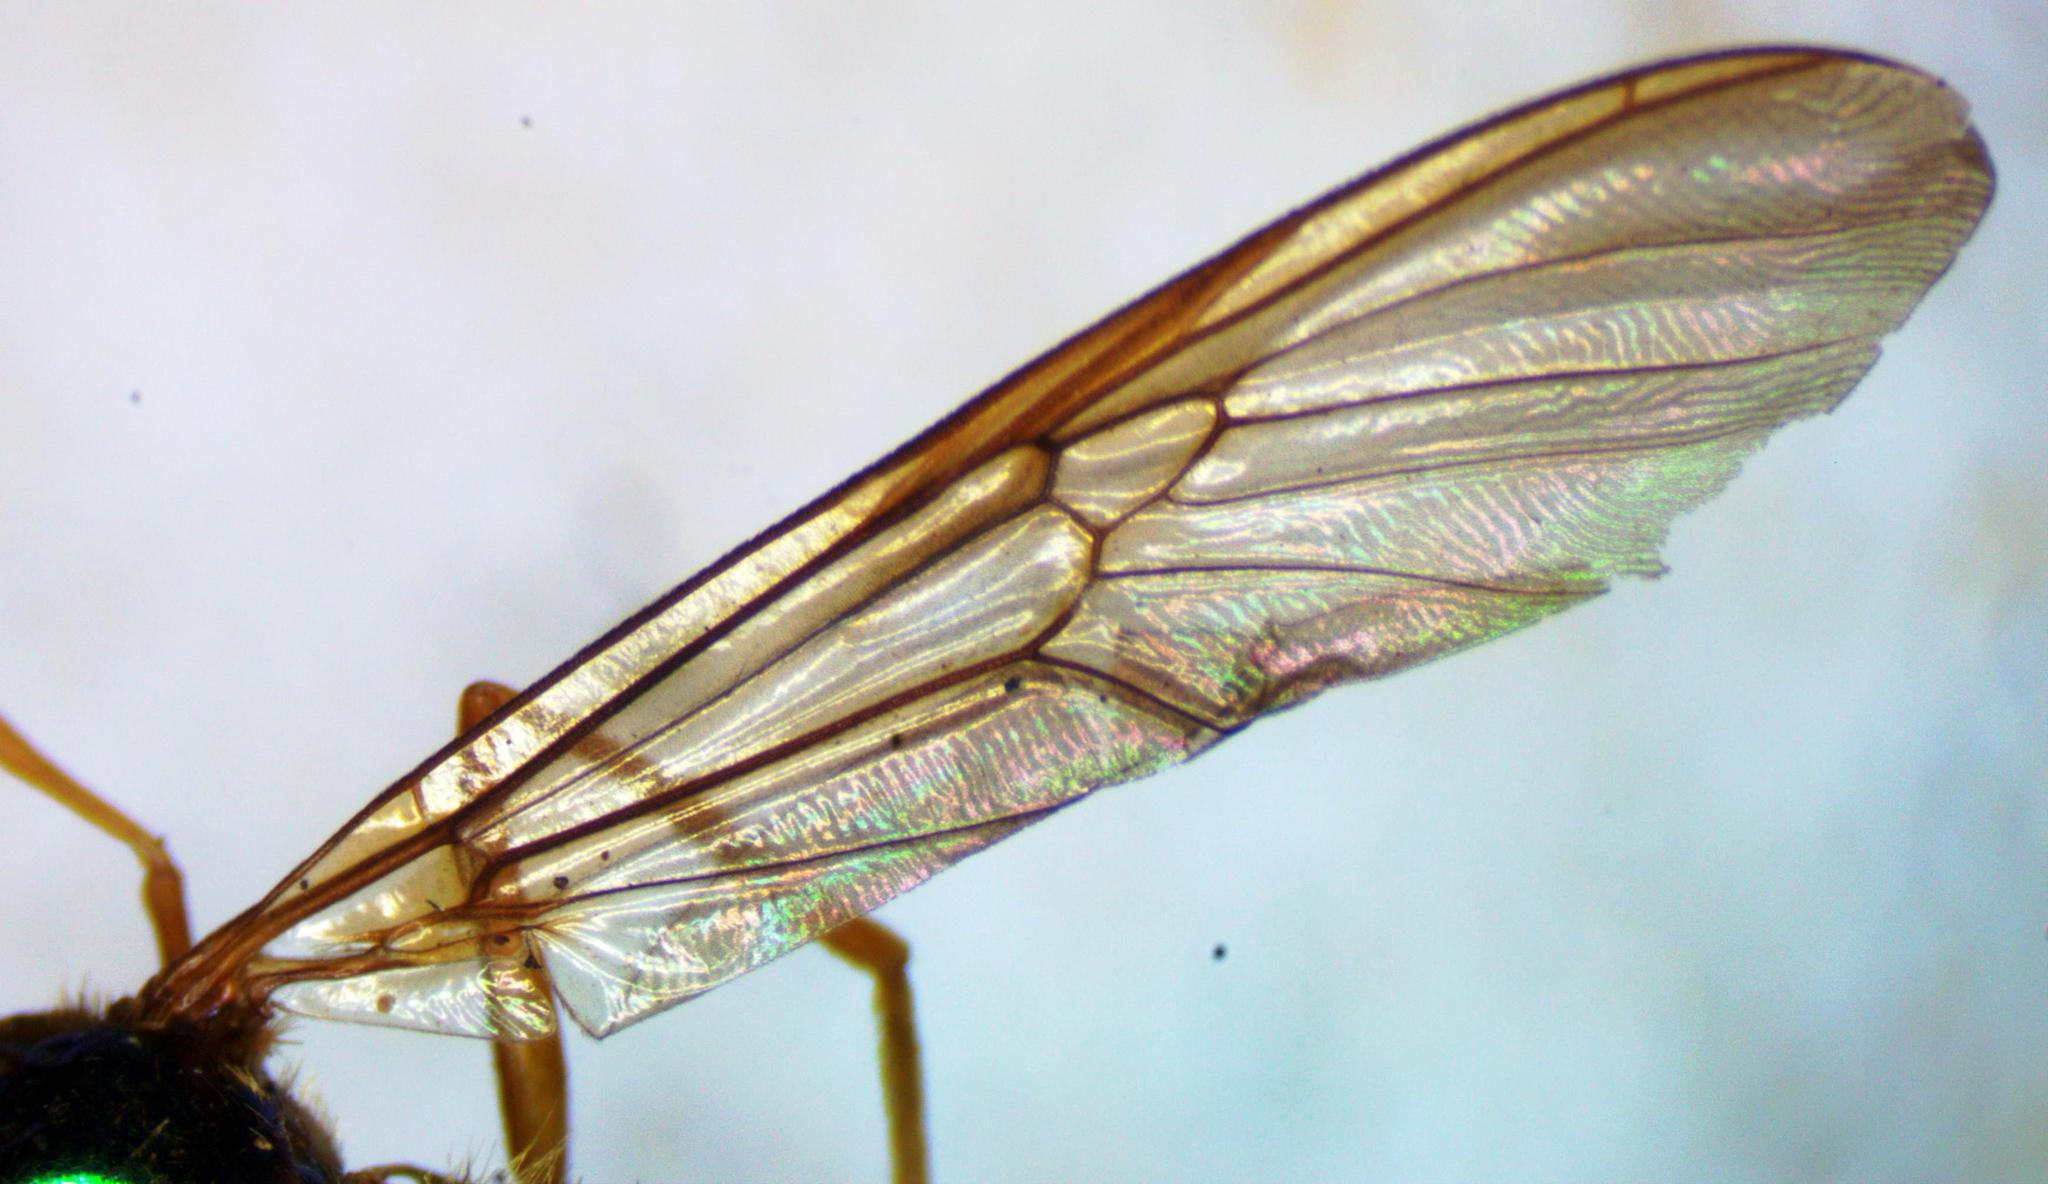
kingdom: Animalia
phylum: Arthropoda
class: Insecta
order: Diptera
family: Stratiomyidae
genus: Sargus
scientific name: Sargus speciosus
